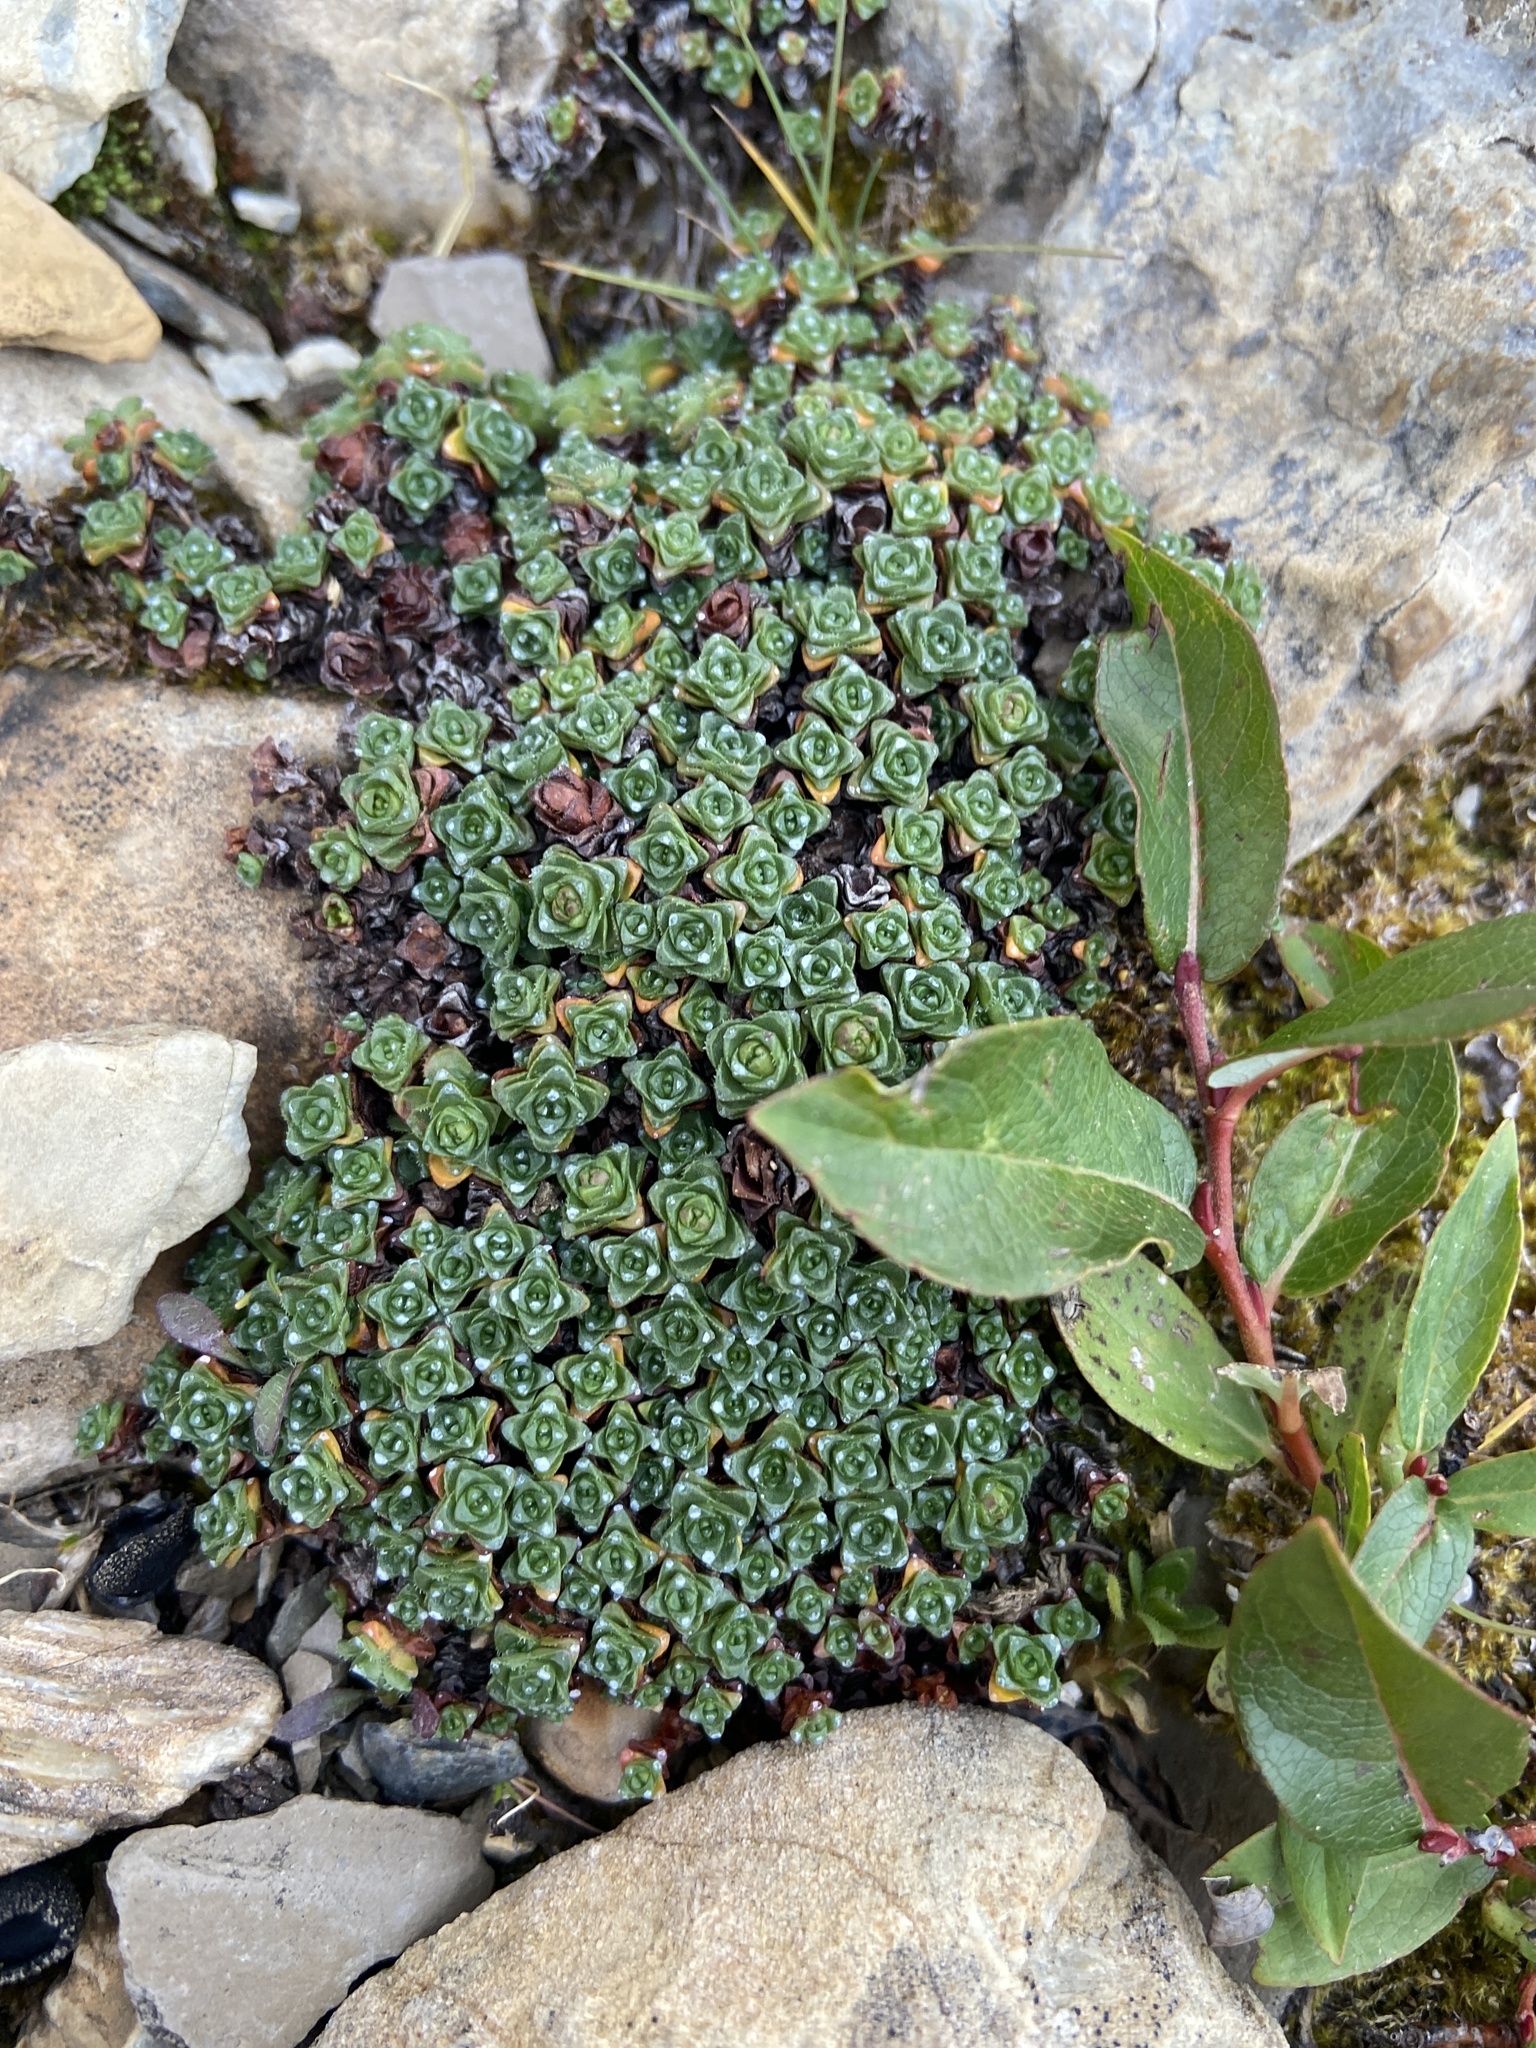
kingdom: Plantae
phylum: Tracheophyta
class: Magnoliopsida
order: Saxifragales
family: Saxifragaceae
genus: Saxifraga
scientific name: Saxifraga oppositifolia
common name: Purple saxifrage
